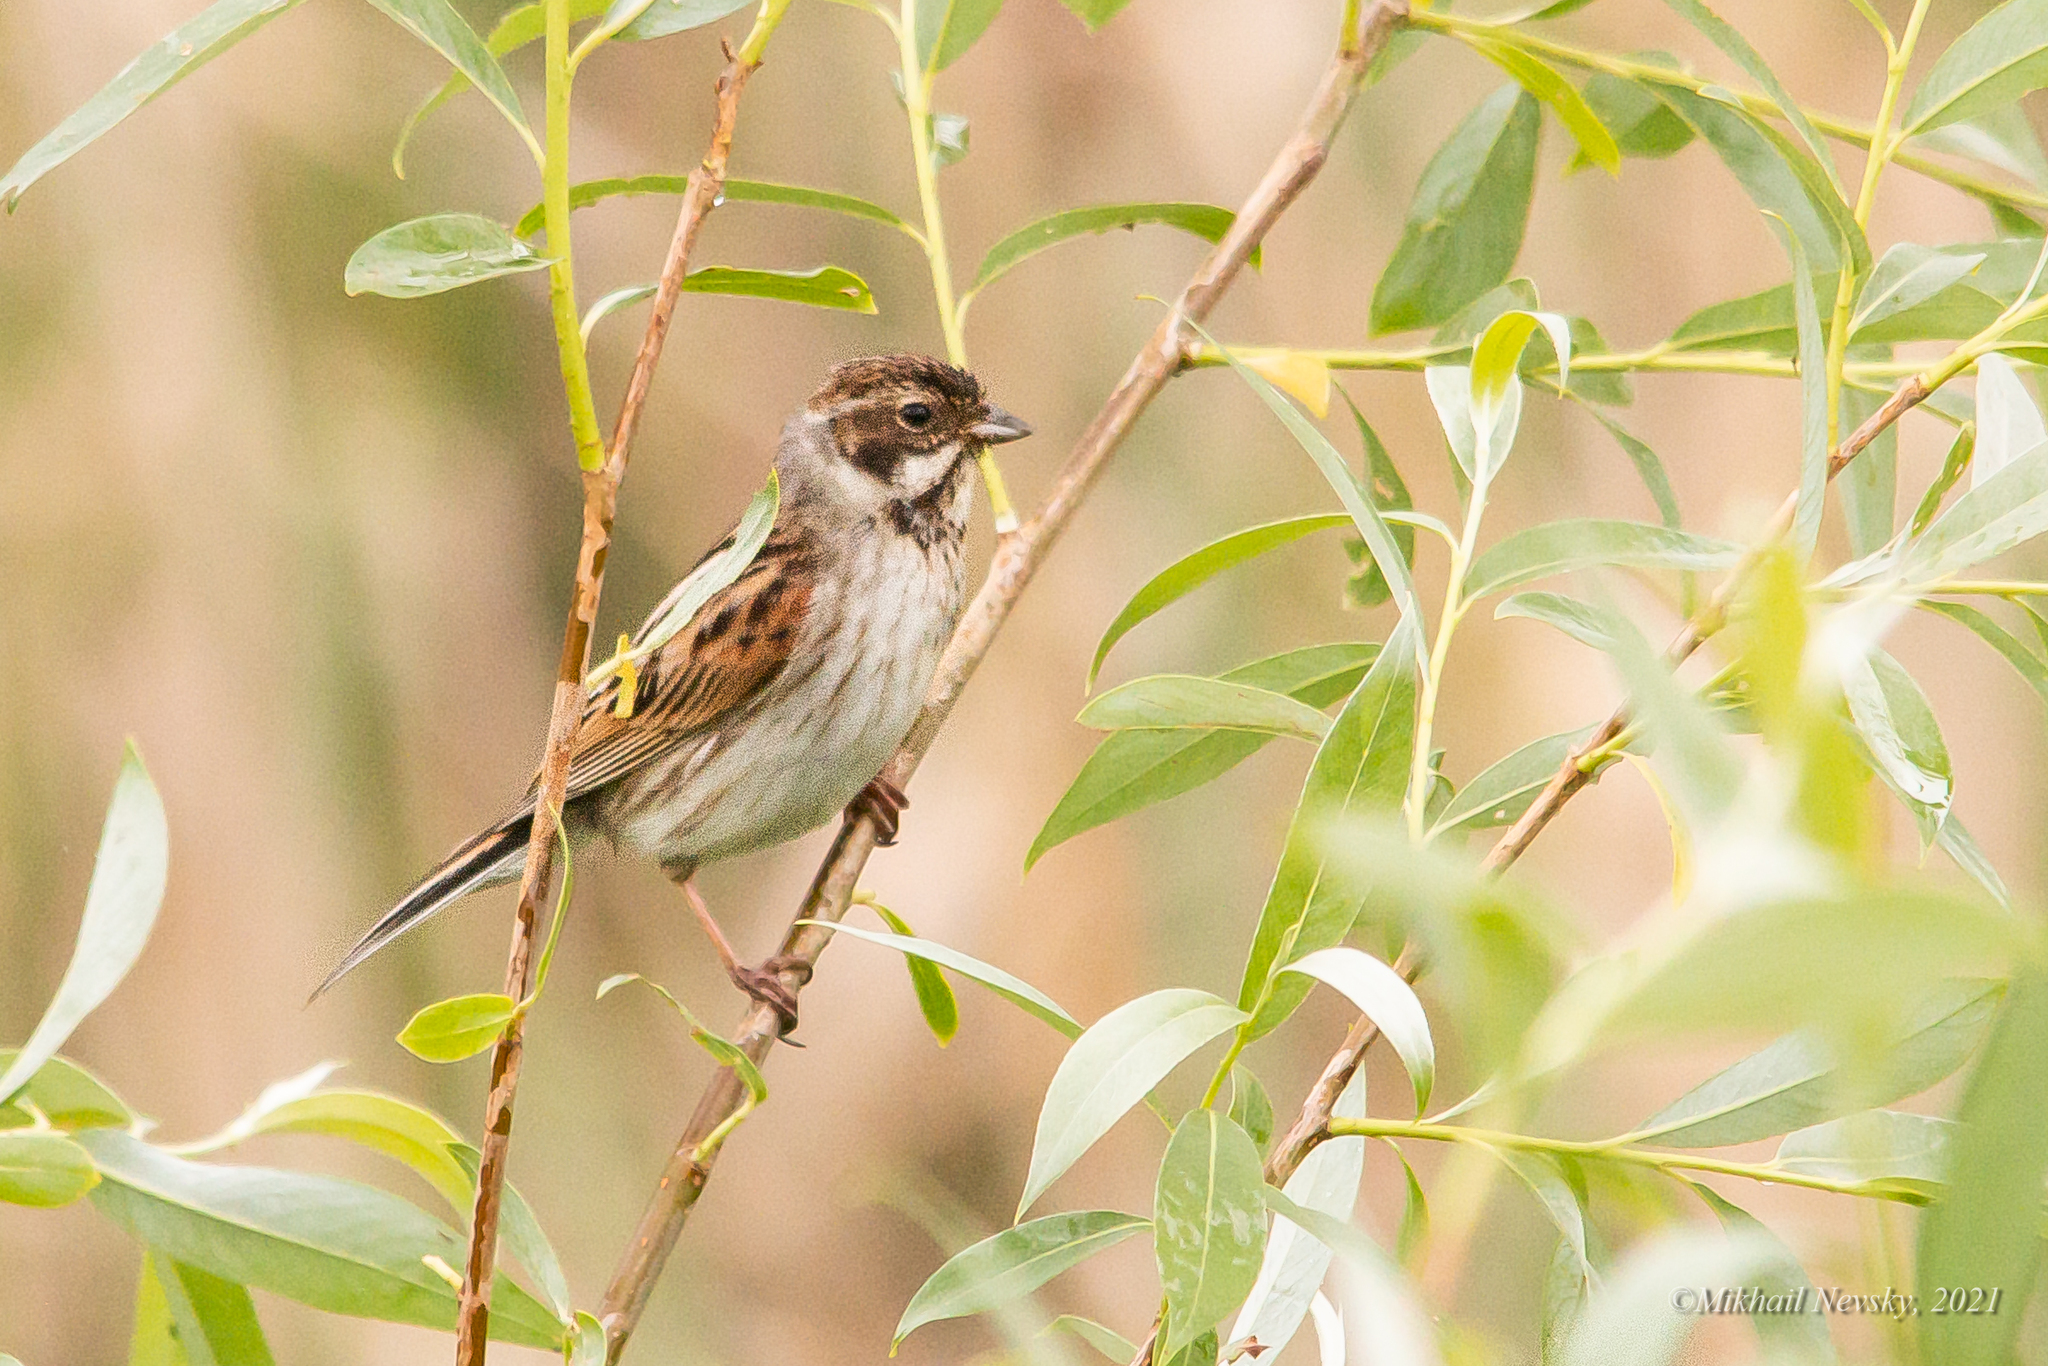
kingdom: Animalia
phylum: Chordata
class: Aves
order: Passeriformes
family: Emberizidae
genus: Emberiza
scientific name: Emberiza schoeniclus
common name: Reed bunting
